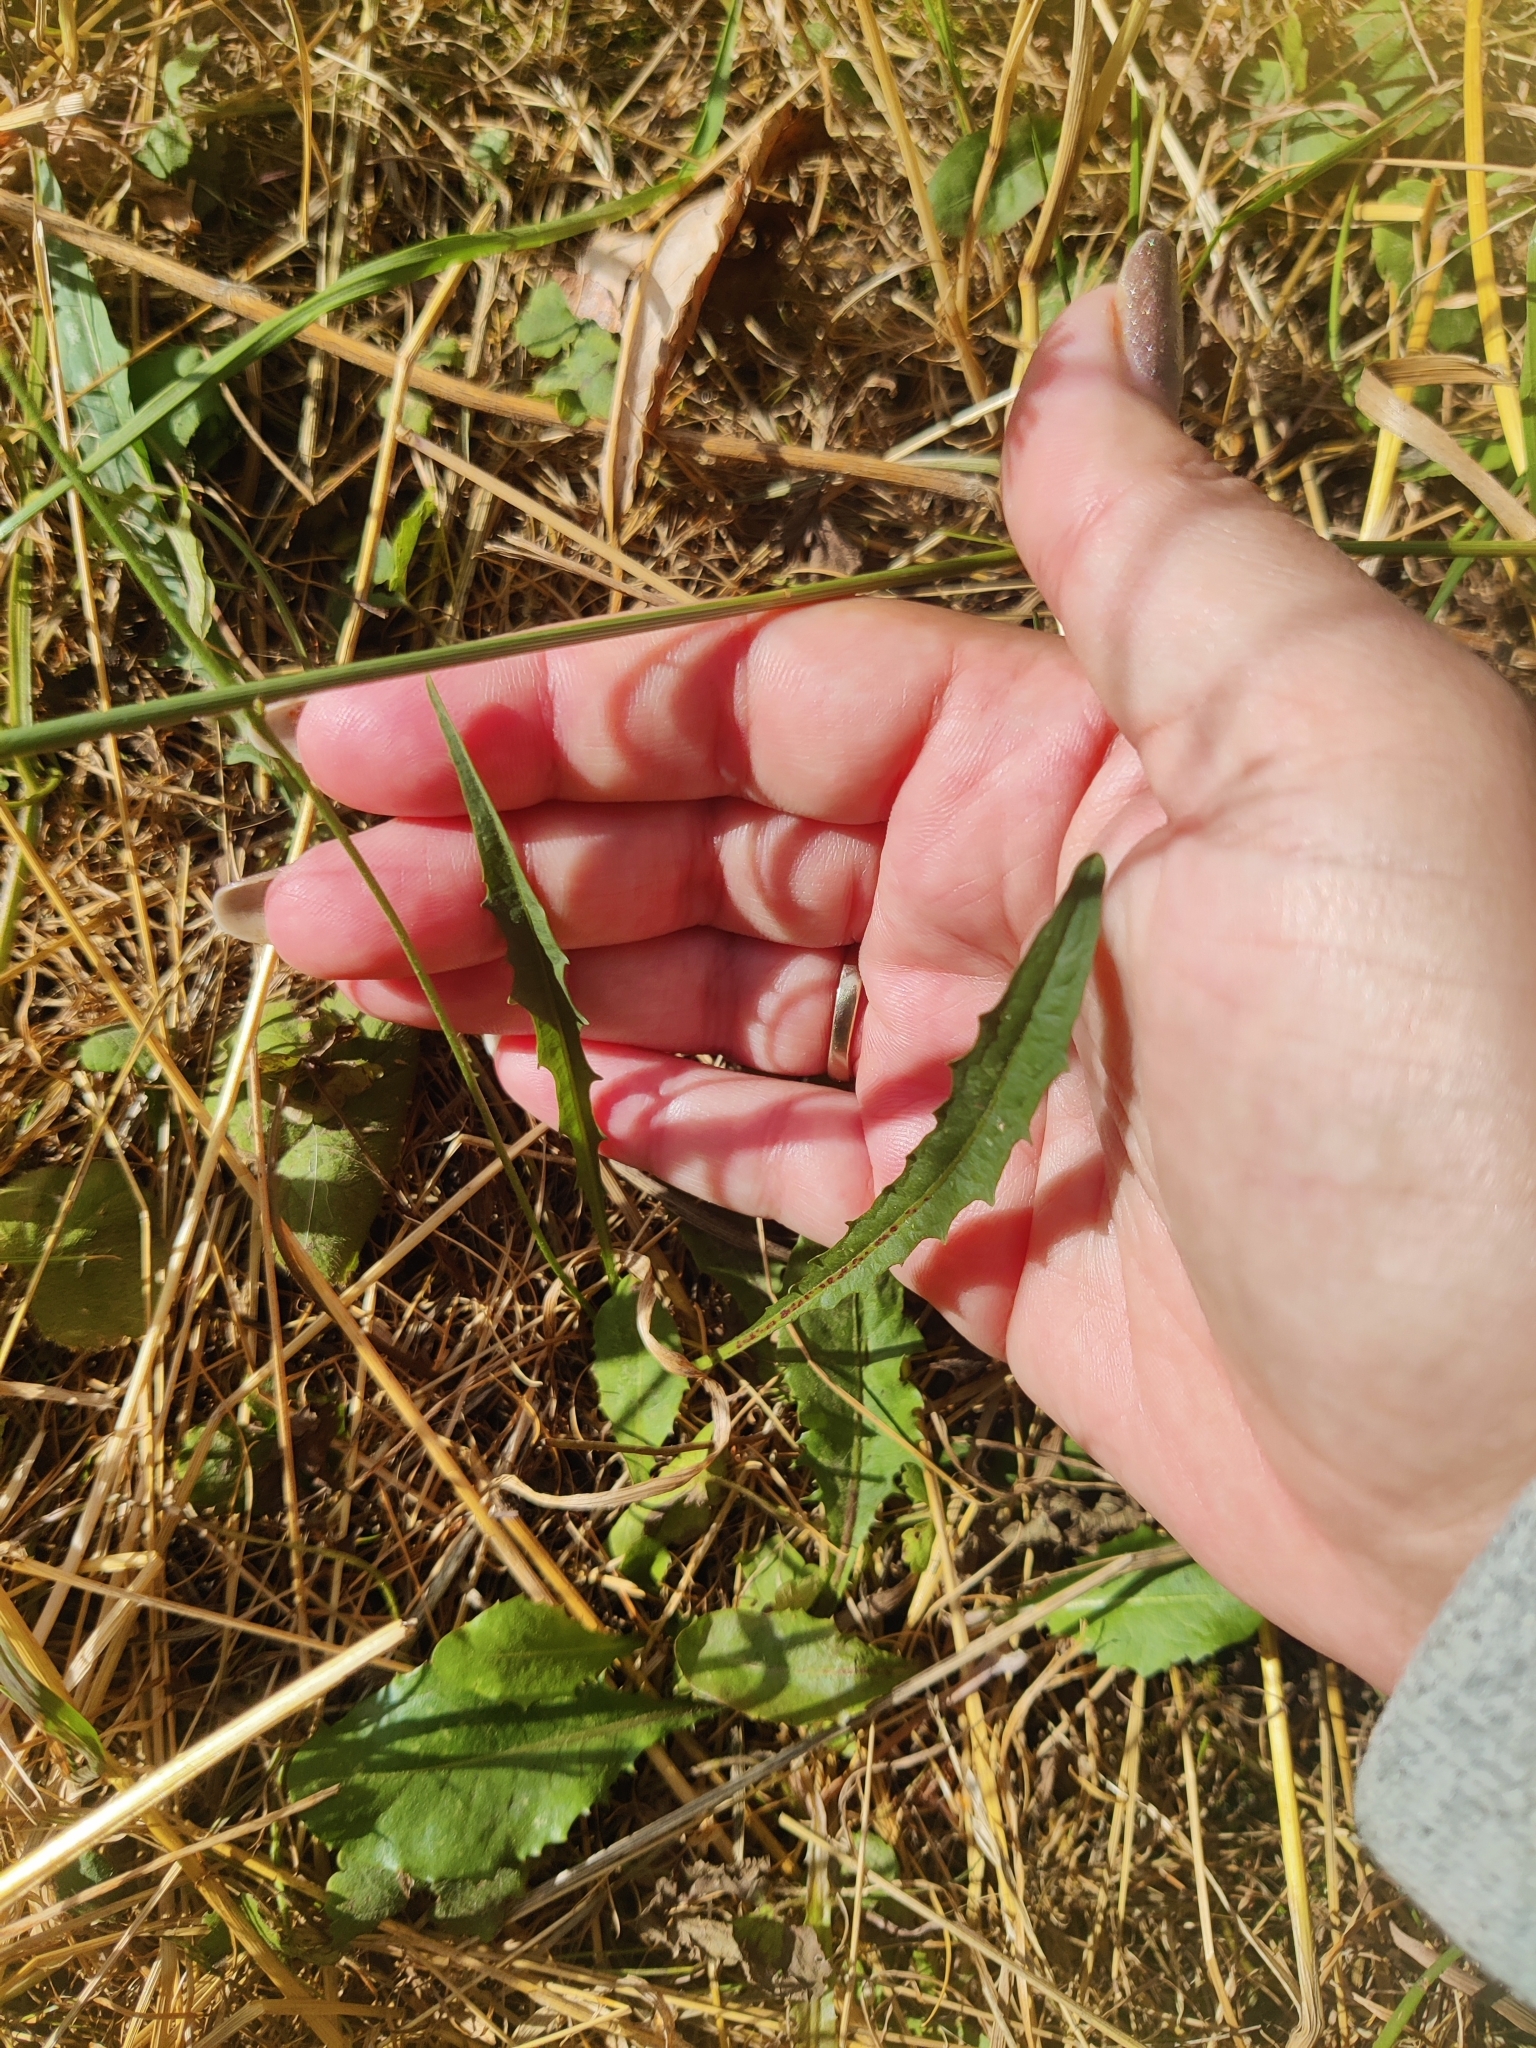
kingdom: Plantae
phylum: Tracheophyta
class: Magnoliopsida
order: Asterales
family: Asteraceae
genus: Scorzoneroides
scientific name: Scorzoneroides autumnalis
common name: Autumn hawkbit
